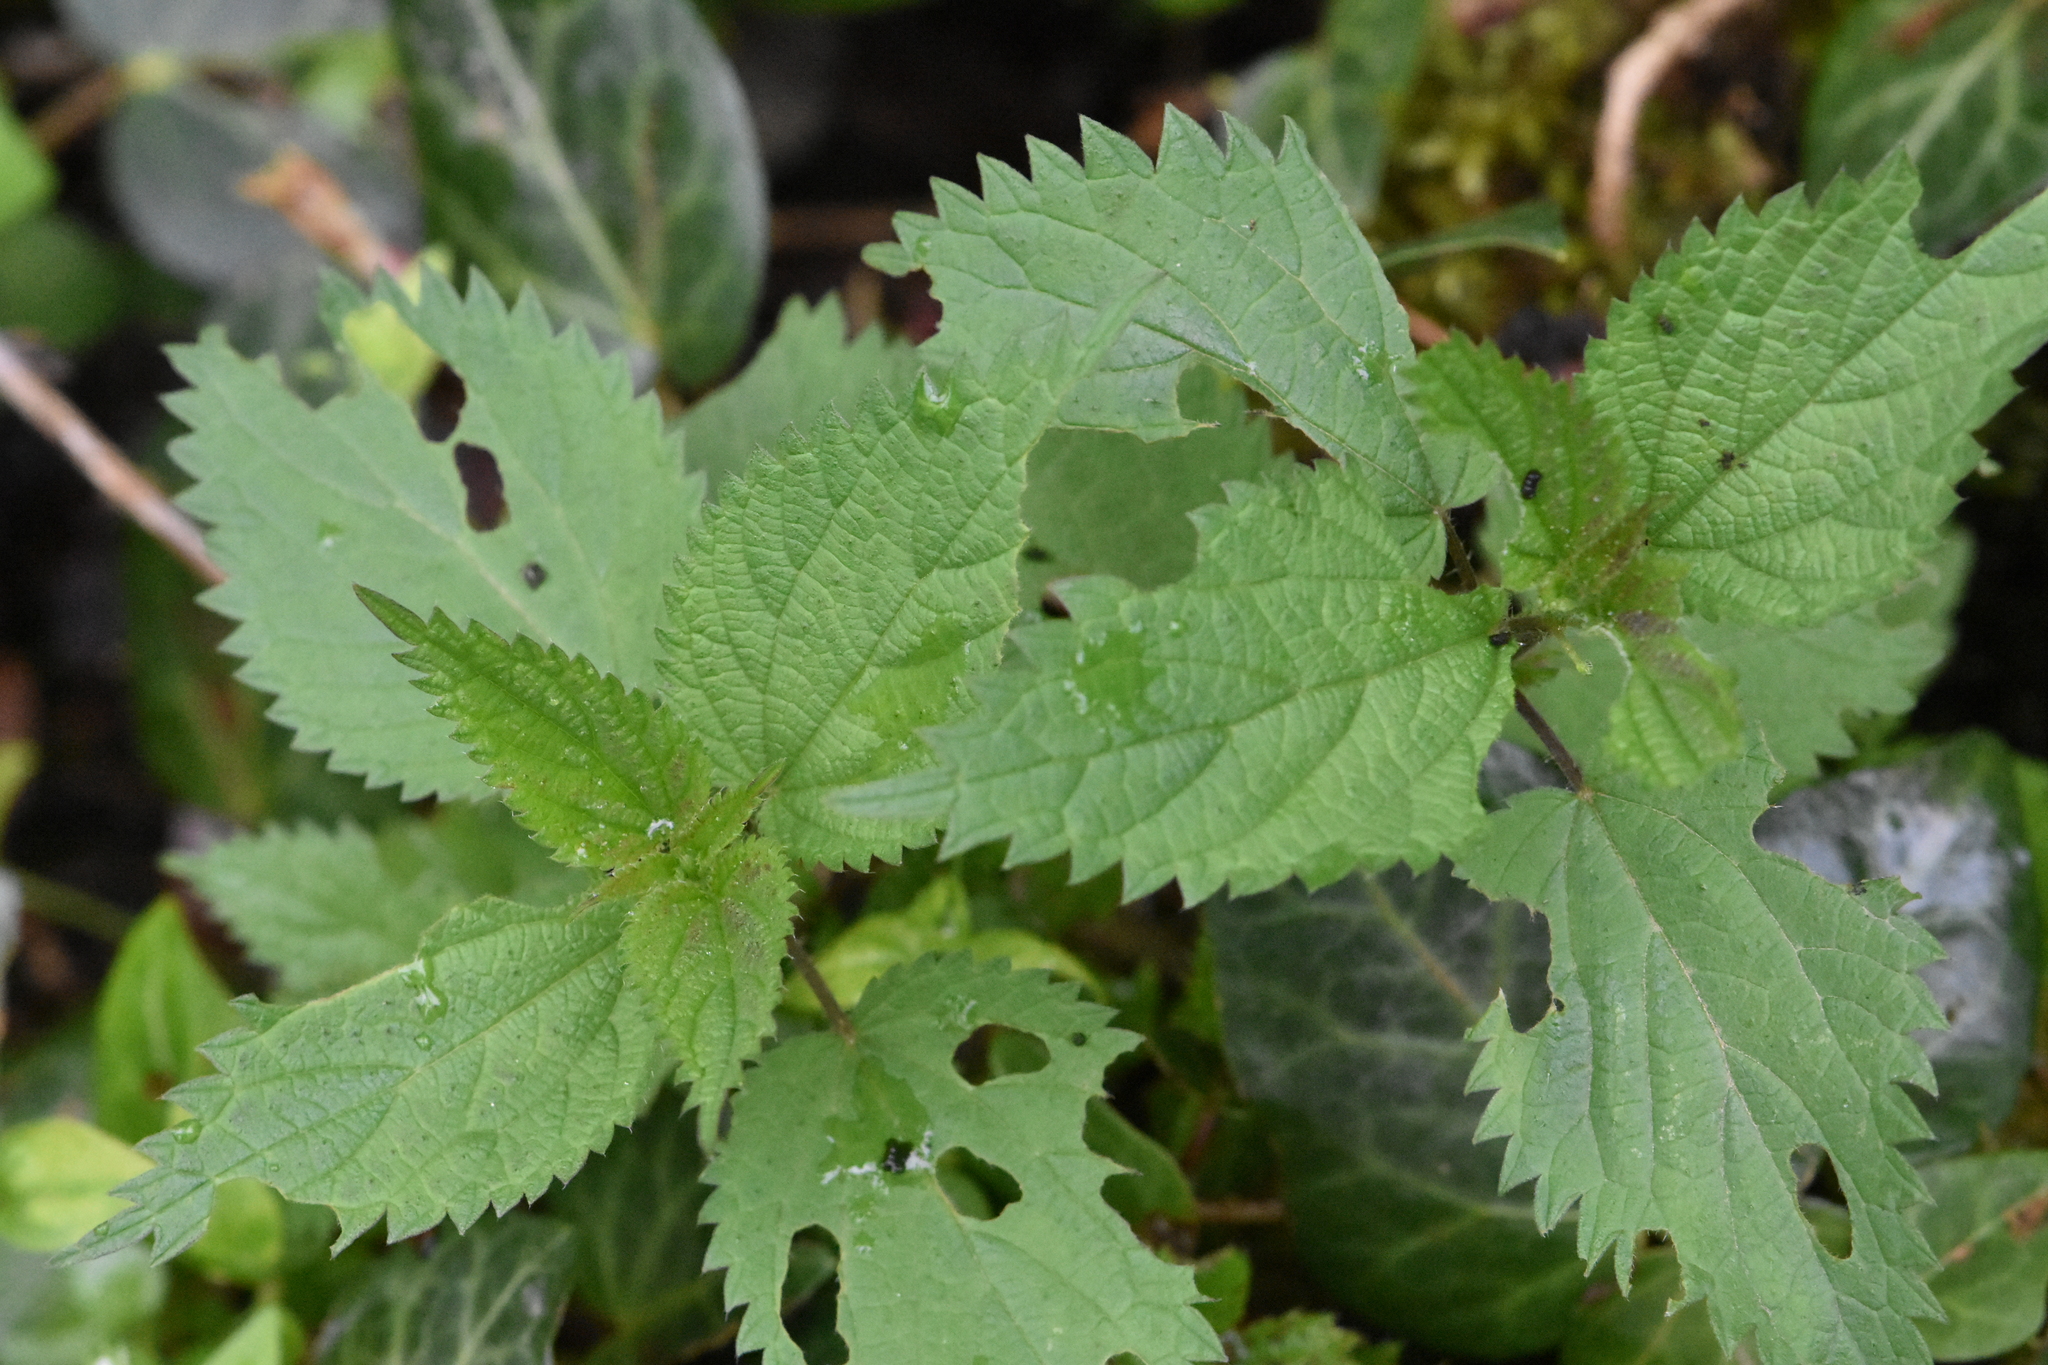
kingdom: Plantae
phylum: Tracheophyta
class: Magnoliopsida
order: Rosales
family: Urticaceae
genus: Urtica
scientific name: Urtica dioica
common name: Common nettle
